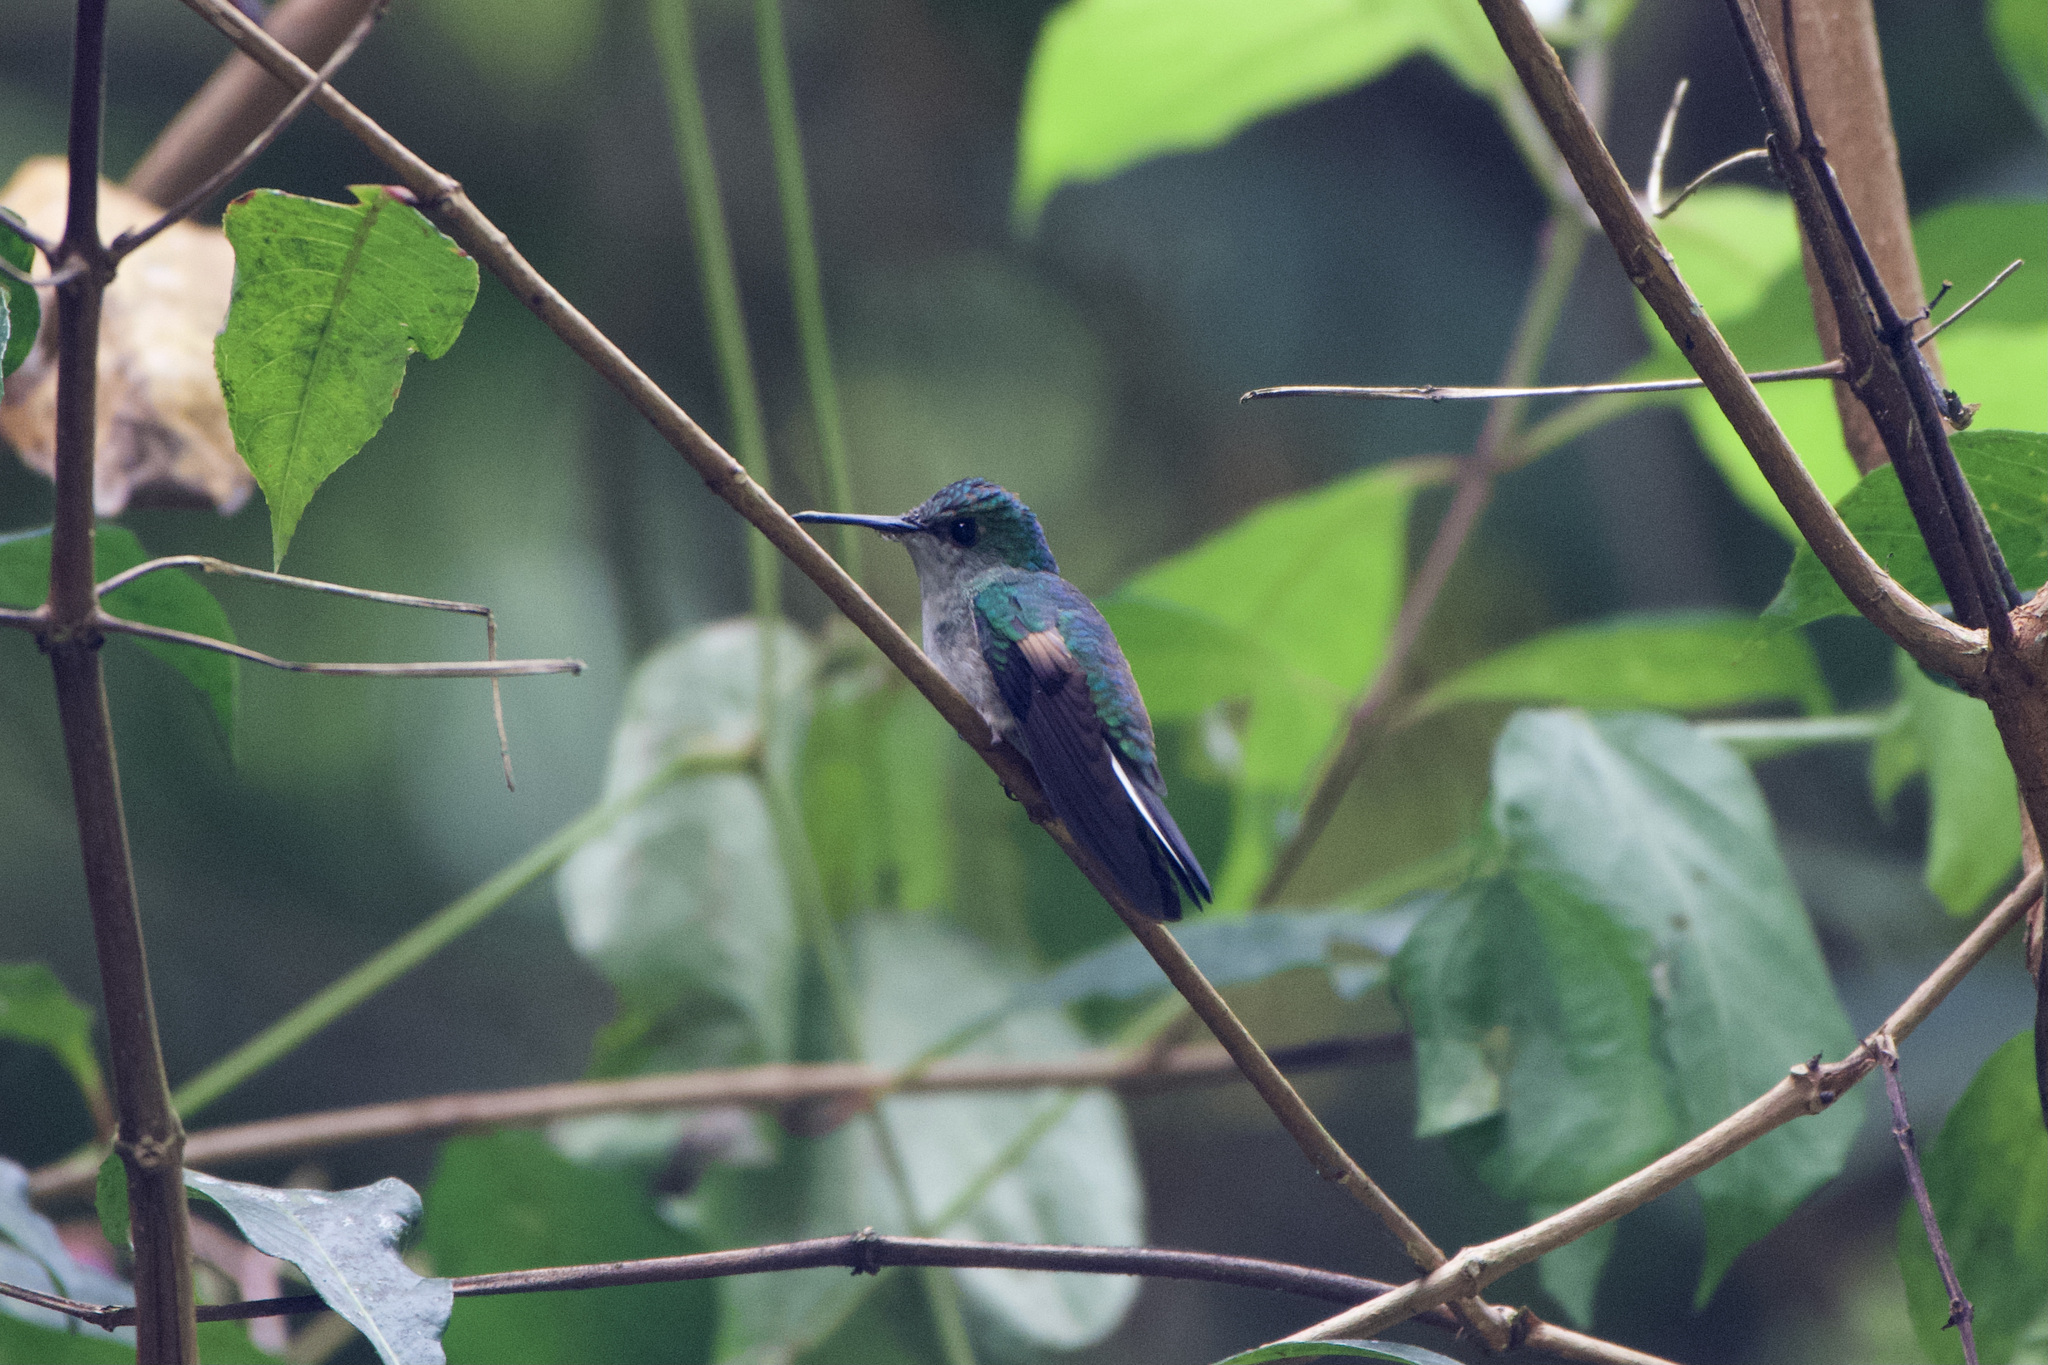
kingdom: Animalia
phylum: Chordata
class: Aves
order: Apodiformes
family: Trochilidae
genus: Eupherusa
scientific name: Eupherusa eximia
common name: Stripe-tailed hummingbird
